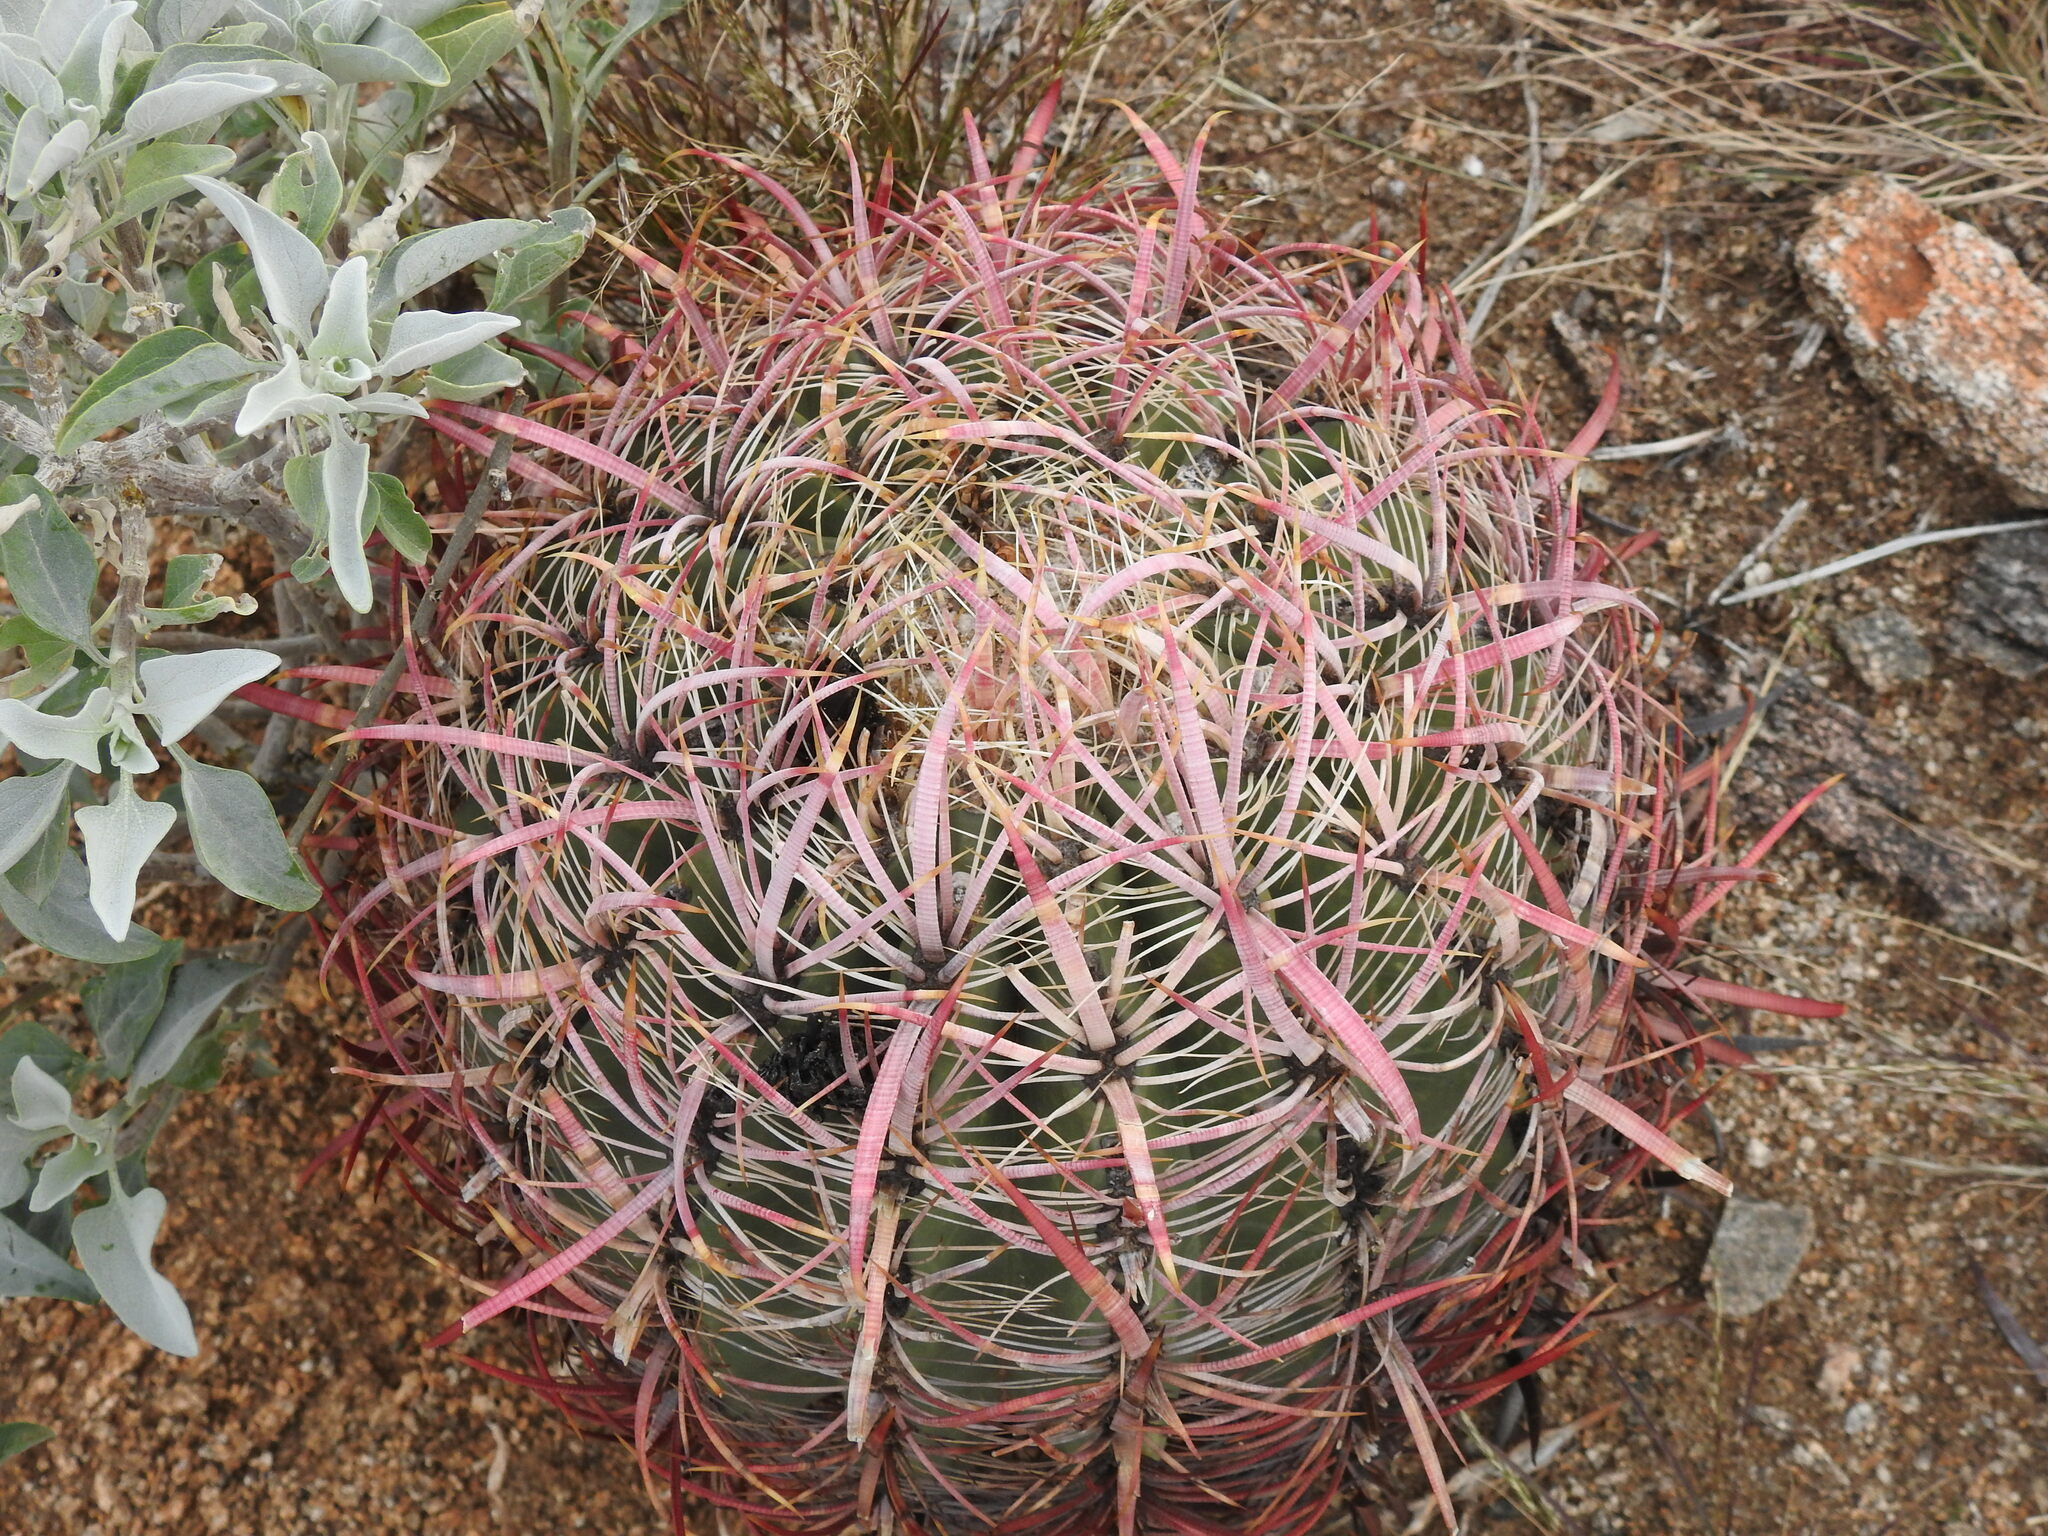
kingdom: Plantae
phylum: Tracheophyta
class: Magnoliopsida
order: Caryophyllales
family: Cactaceae
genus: Ferocactus
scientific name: Ferocactus cylindraceus
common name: California barrel cactus
